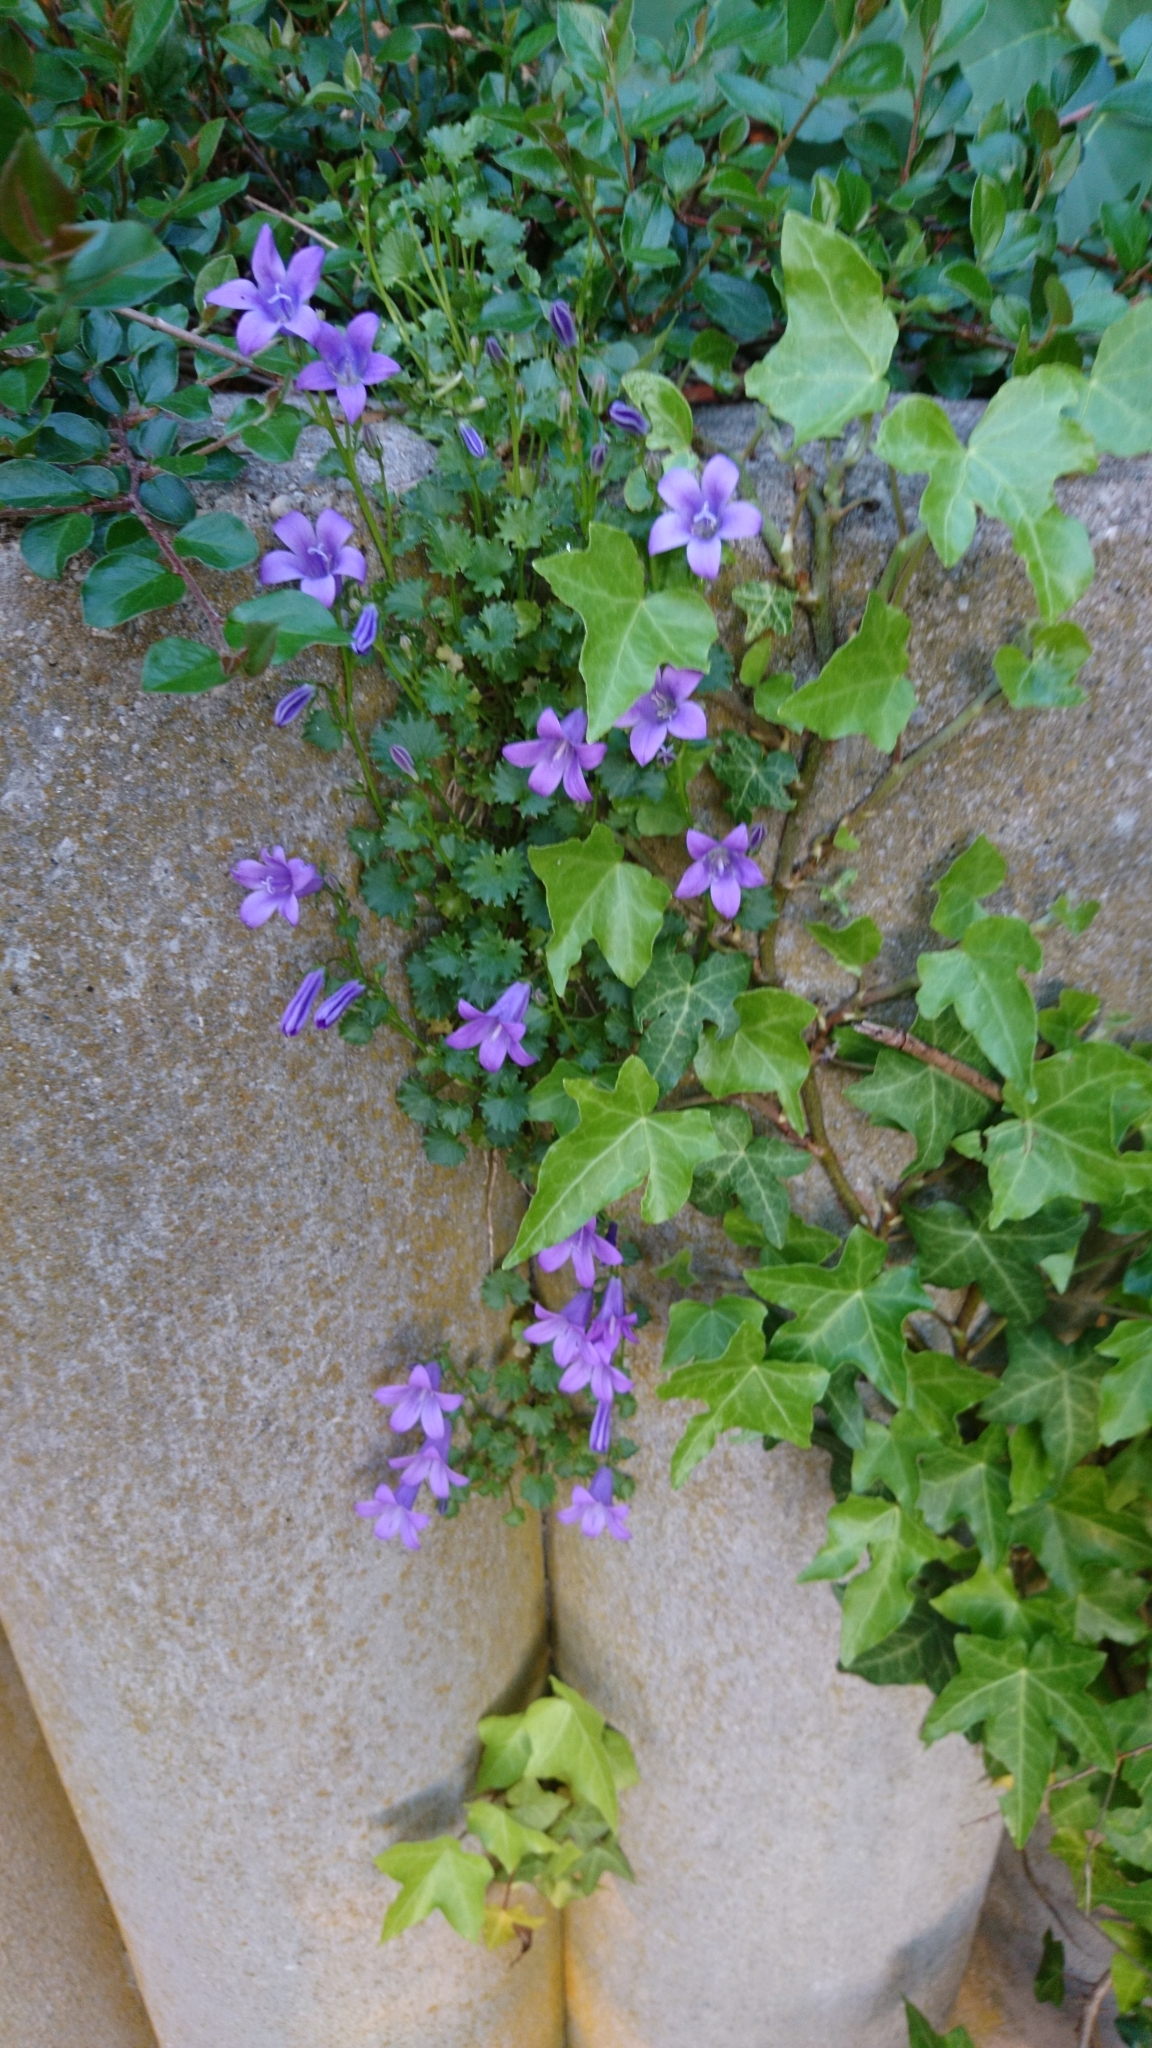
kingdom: Plantae
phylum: Tracheophyta
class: Magnoliopsida
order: Asterales
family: Campanulaceae
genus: Campanula
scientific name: Campanula portenschlagiana
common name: Adria bellflower
